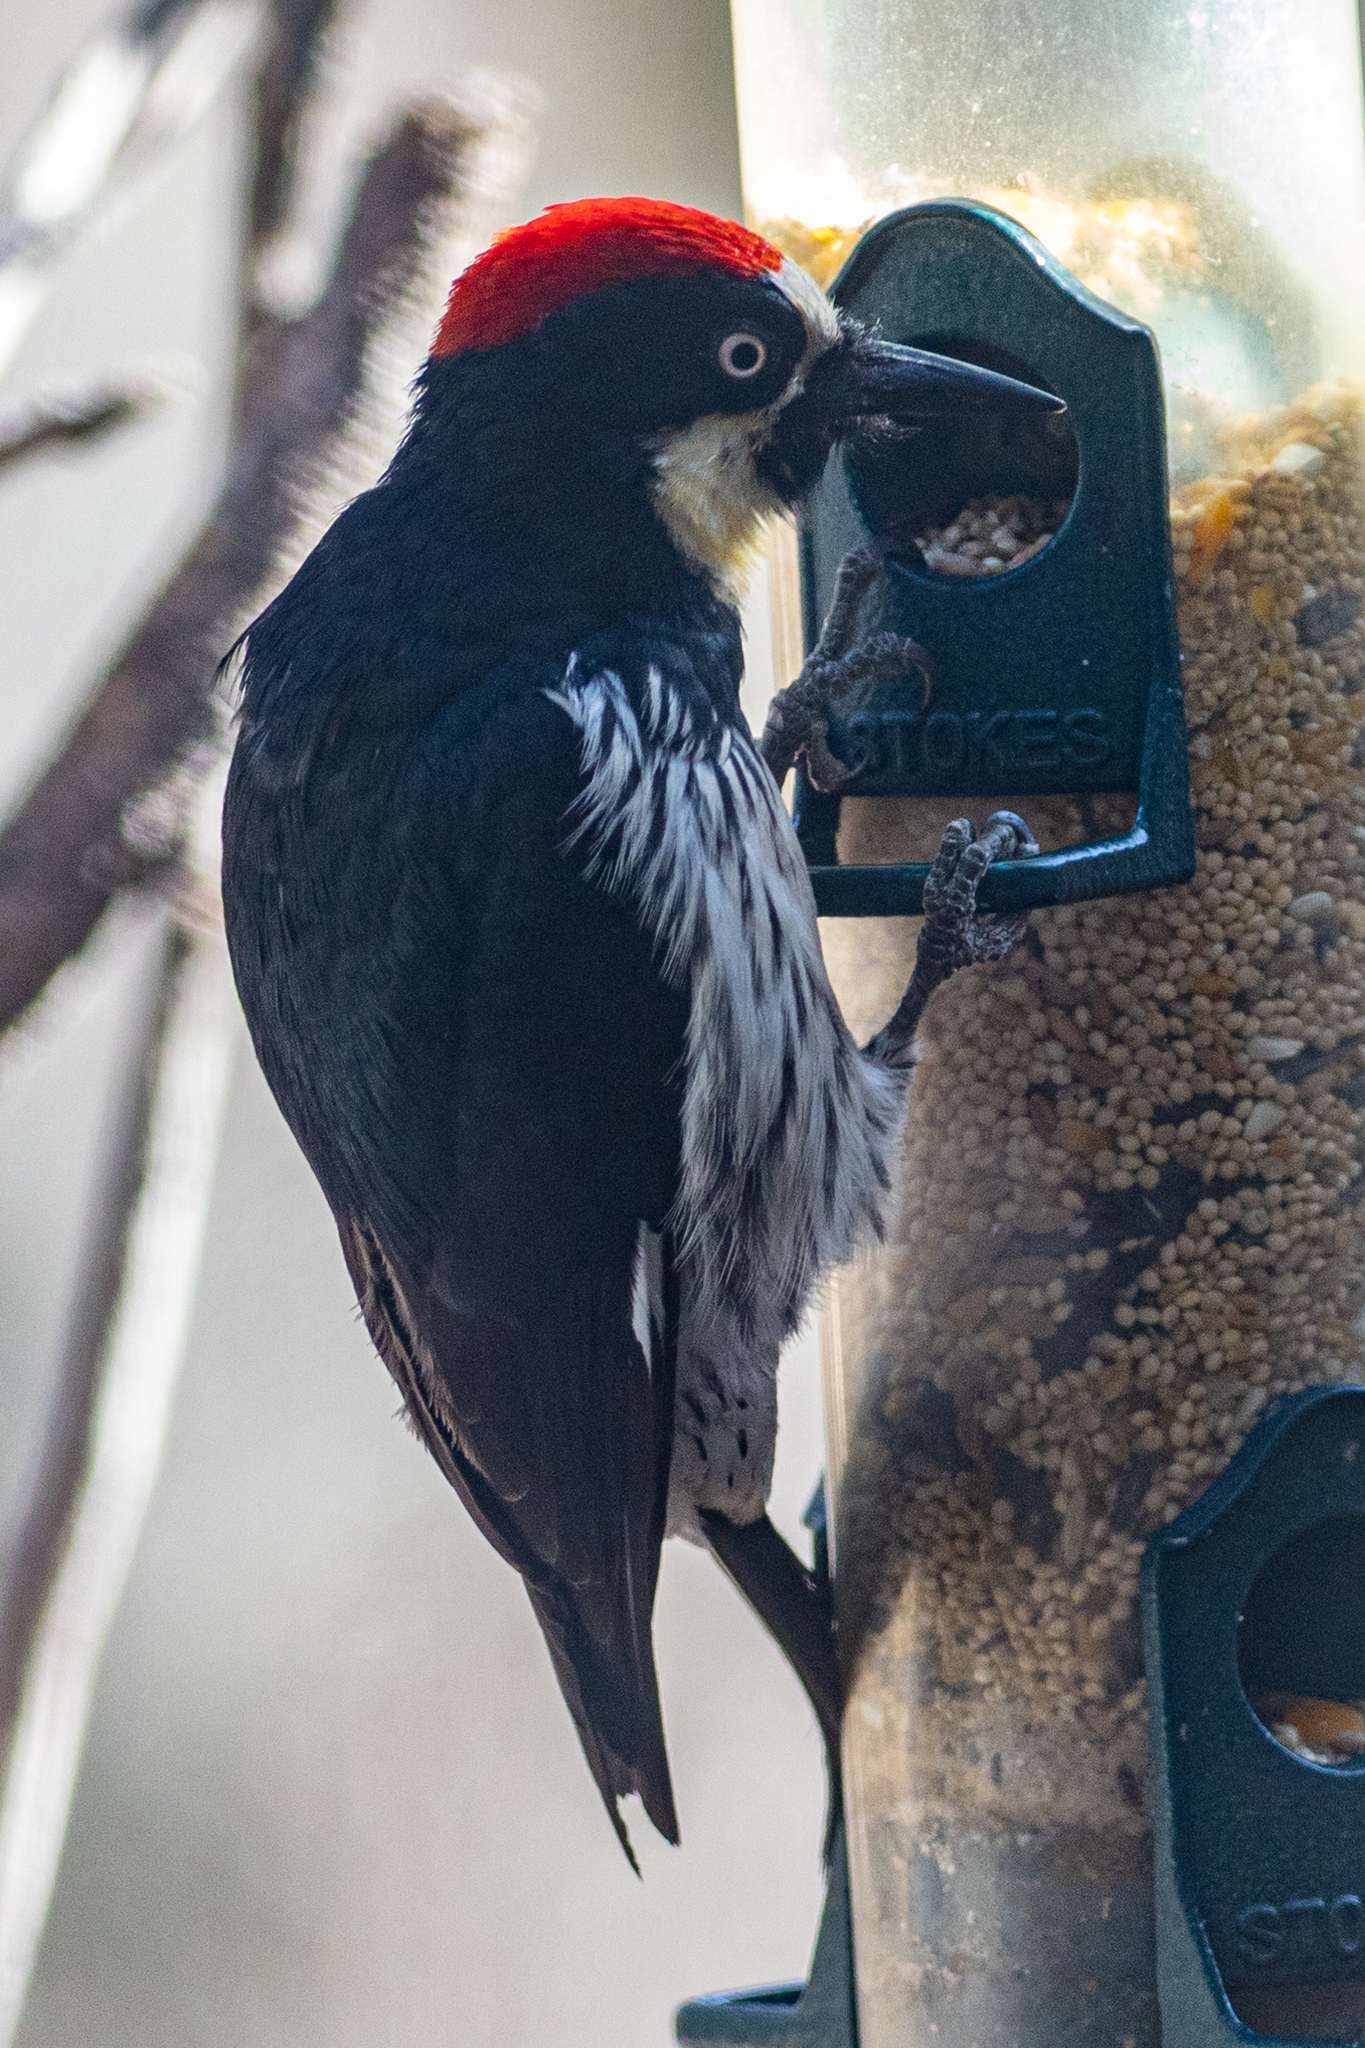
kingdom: Animalia
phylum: Chordata
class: Aves
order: Piciformes
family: Picidae
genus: Melanerpes
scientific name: Melanerpes formicivorus
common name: Acorn woodpecker
